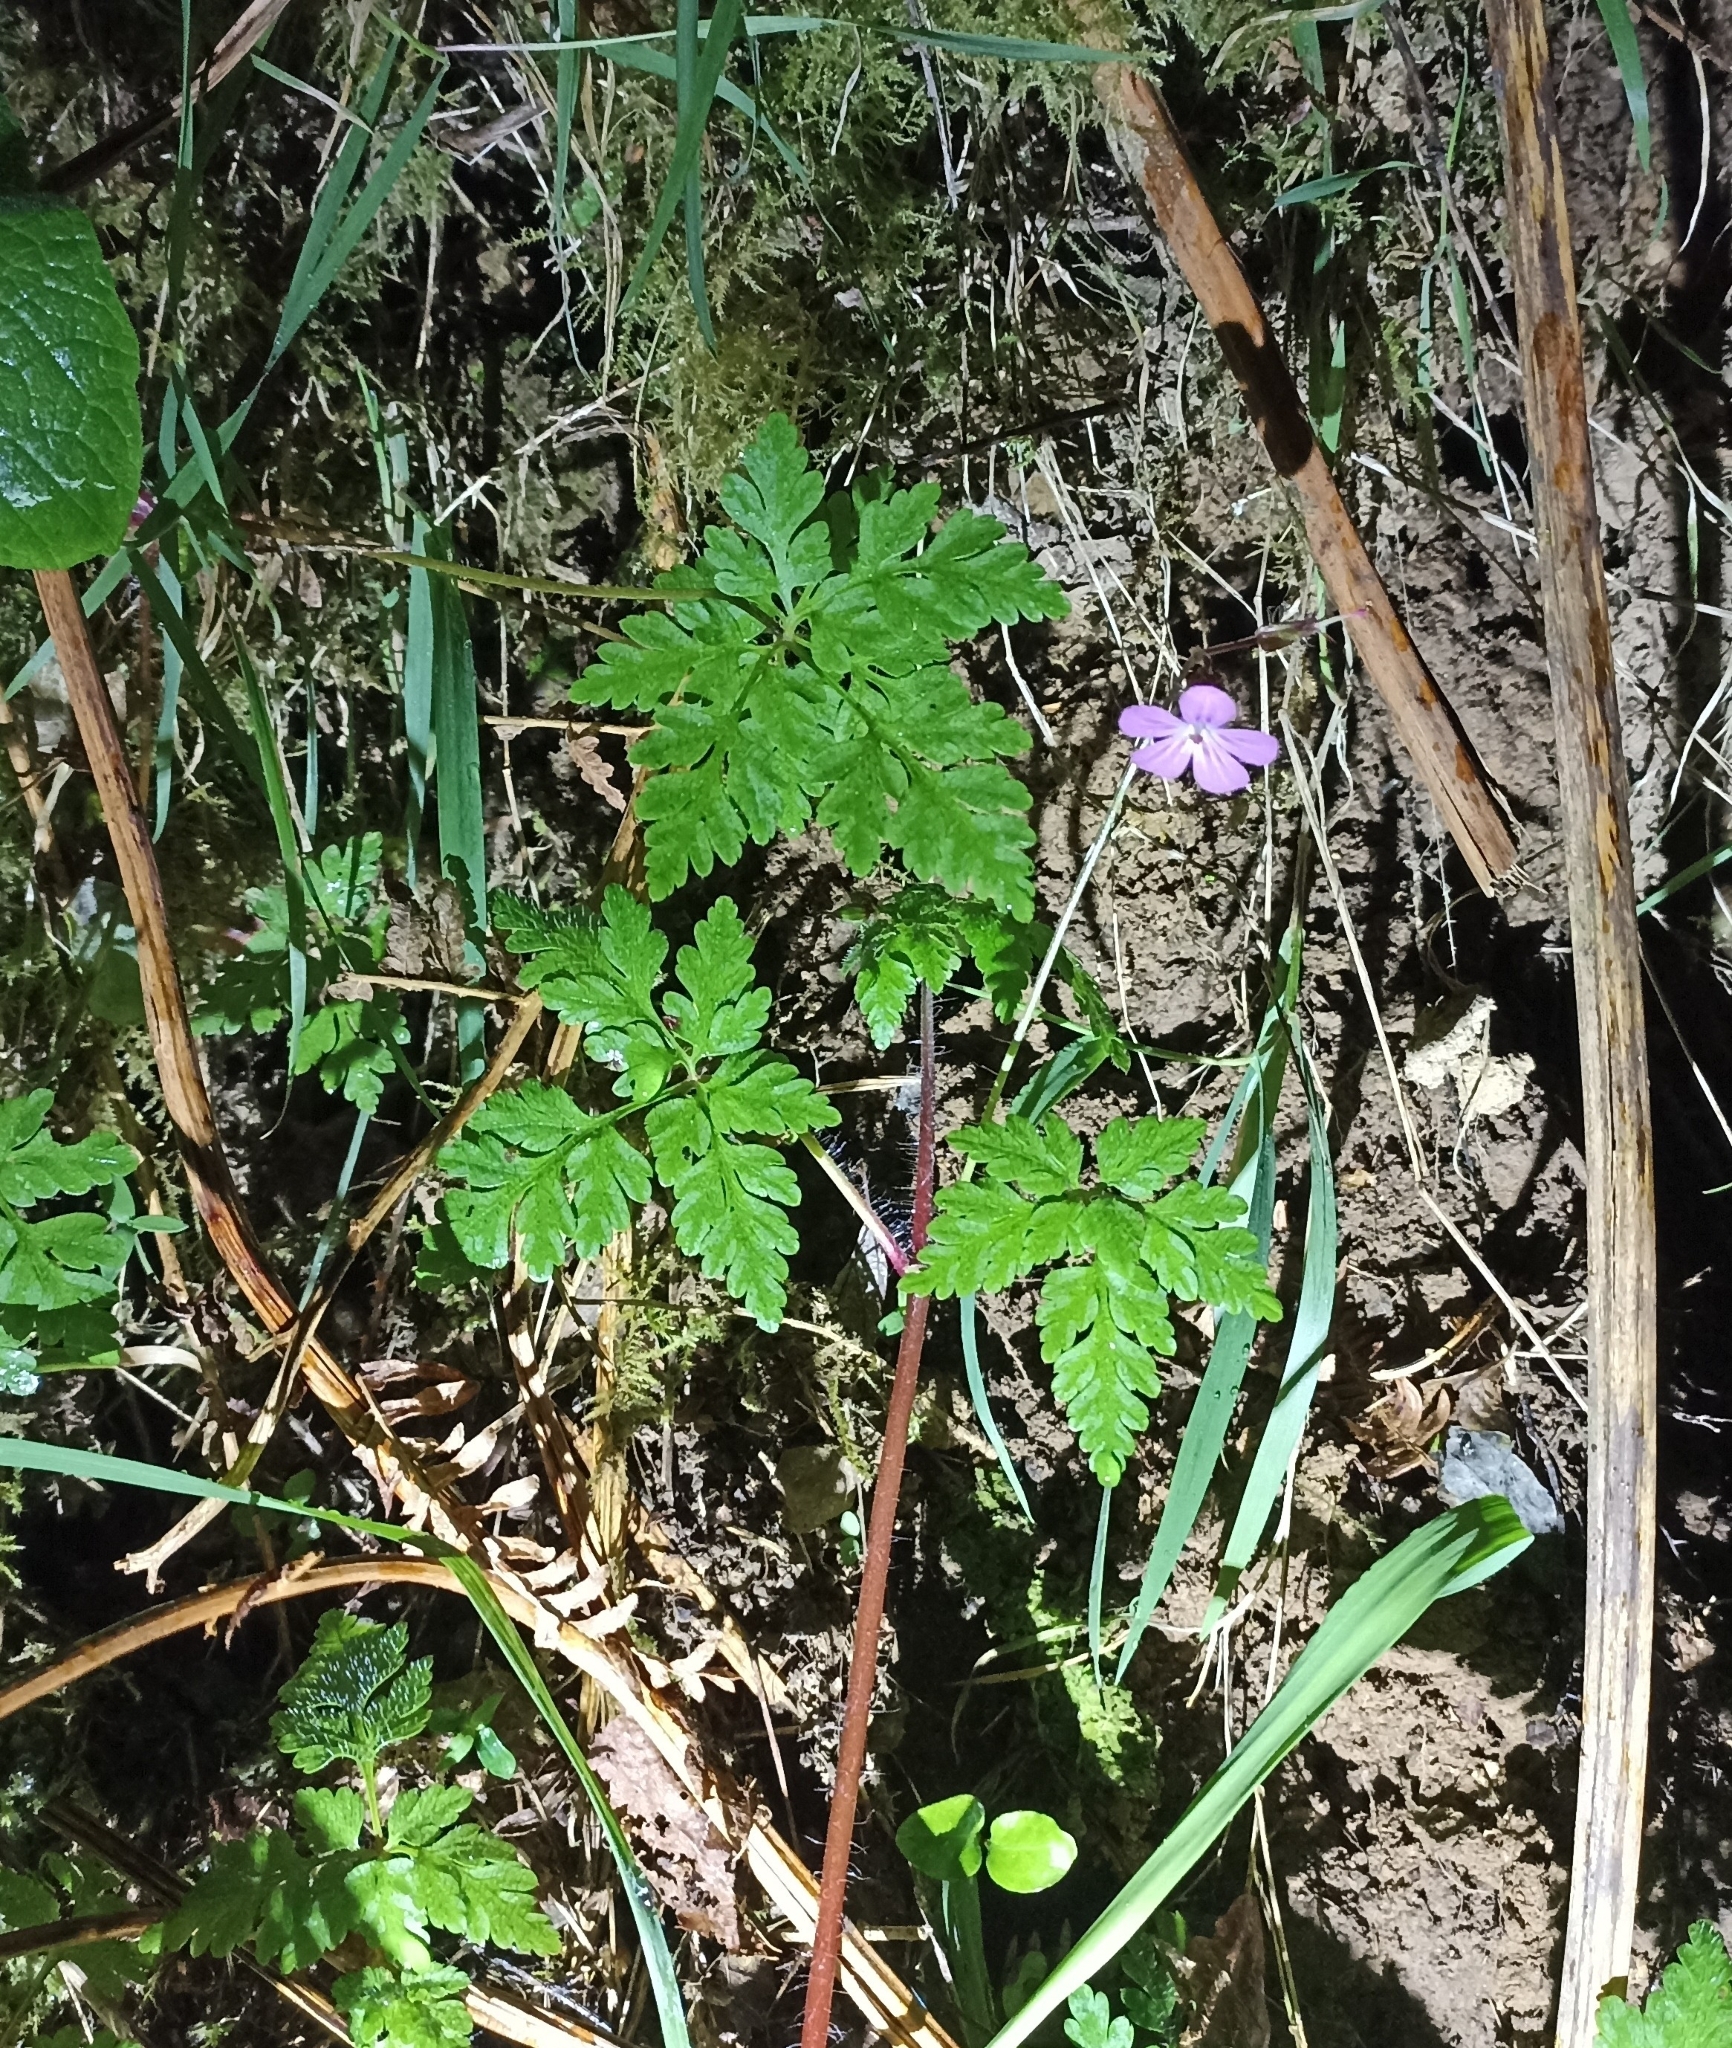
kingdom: Plantae
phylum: Tracheophyta
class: Magnoliopsida
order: Geraniales
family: Geraniaceae
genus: Geranium
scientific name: Geranium robertianum
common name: Herb-robert
